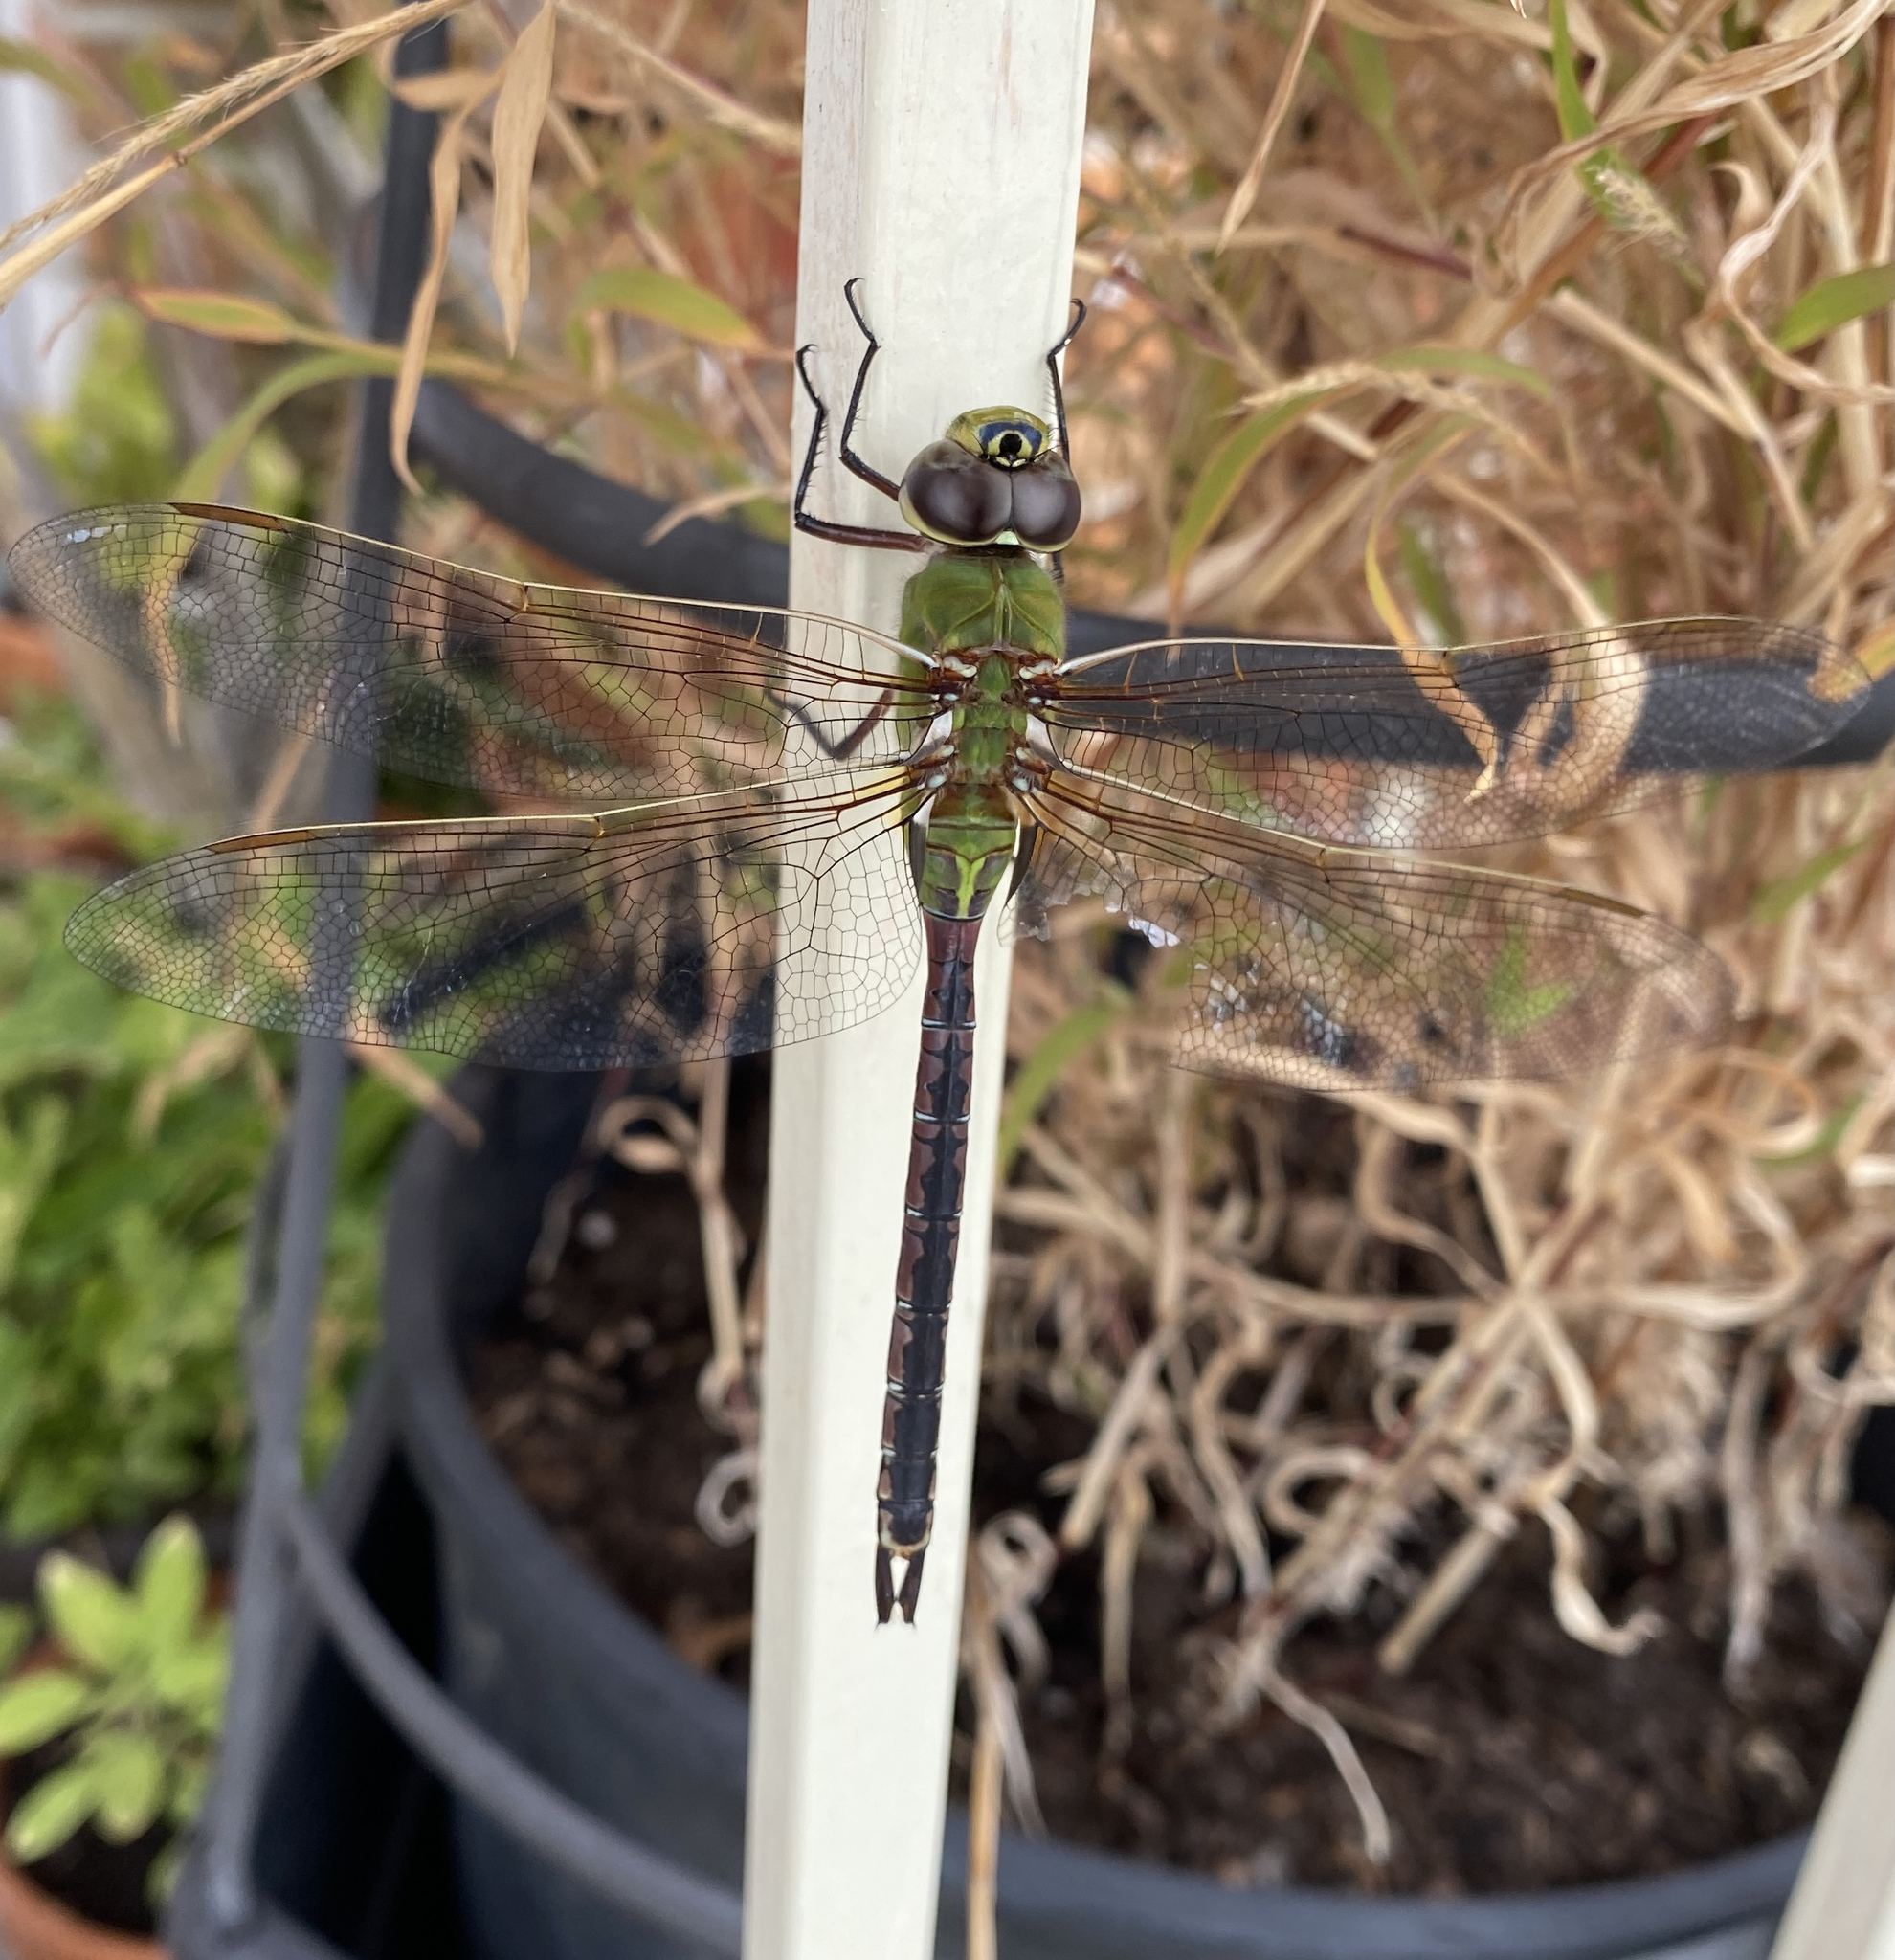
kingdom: Animalia
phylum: Arthropoda
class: Insecta
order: Odonata
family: Aeshnidae
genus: Anax
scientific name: Anax junius
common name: Common green darner
